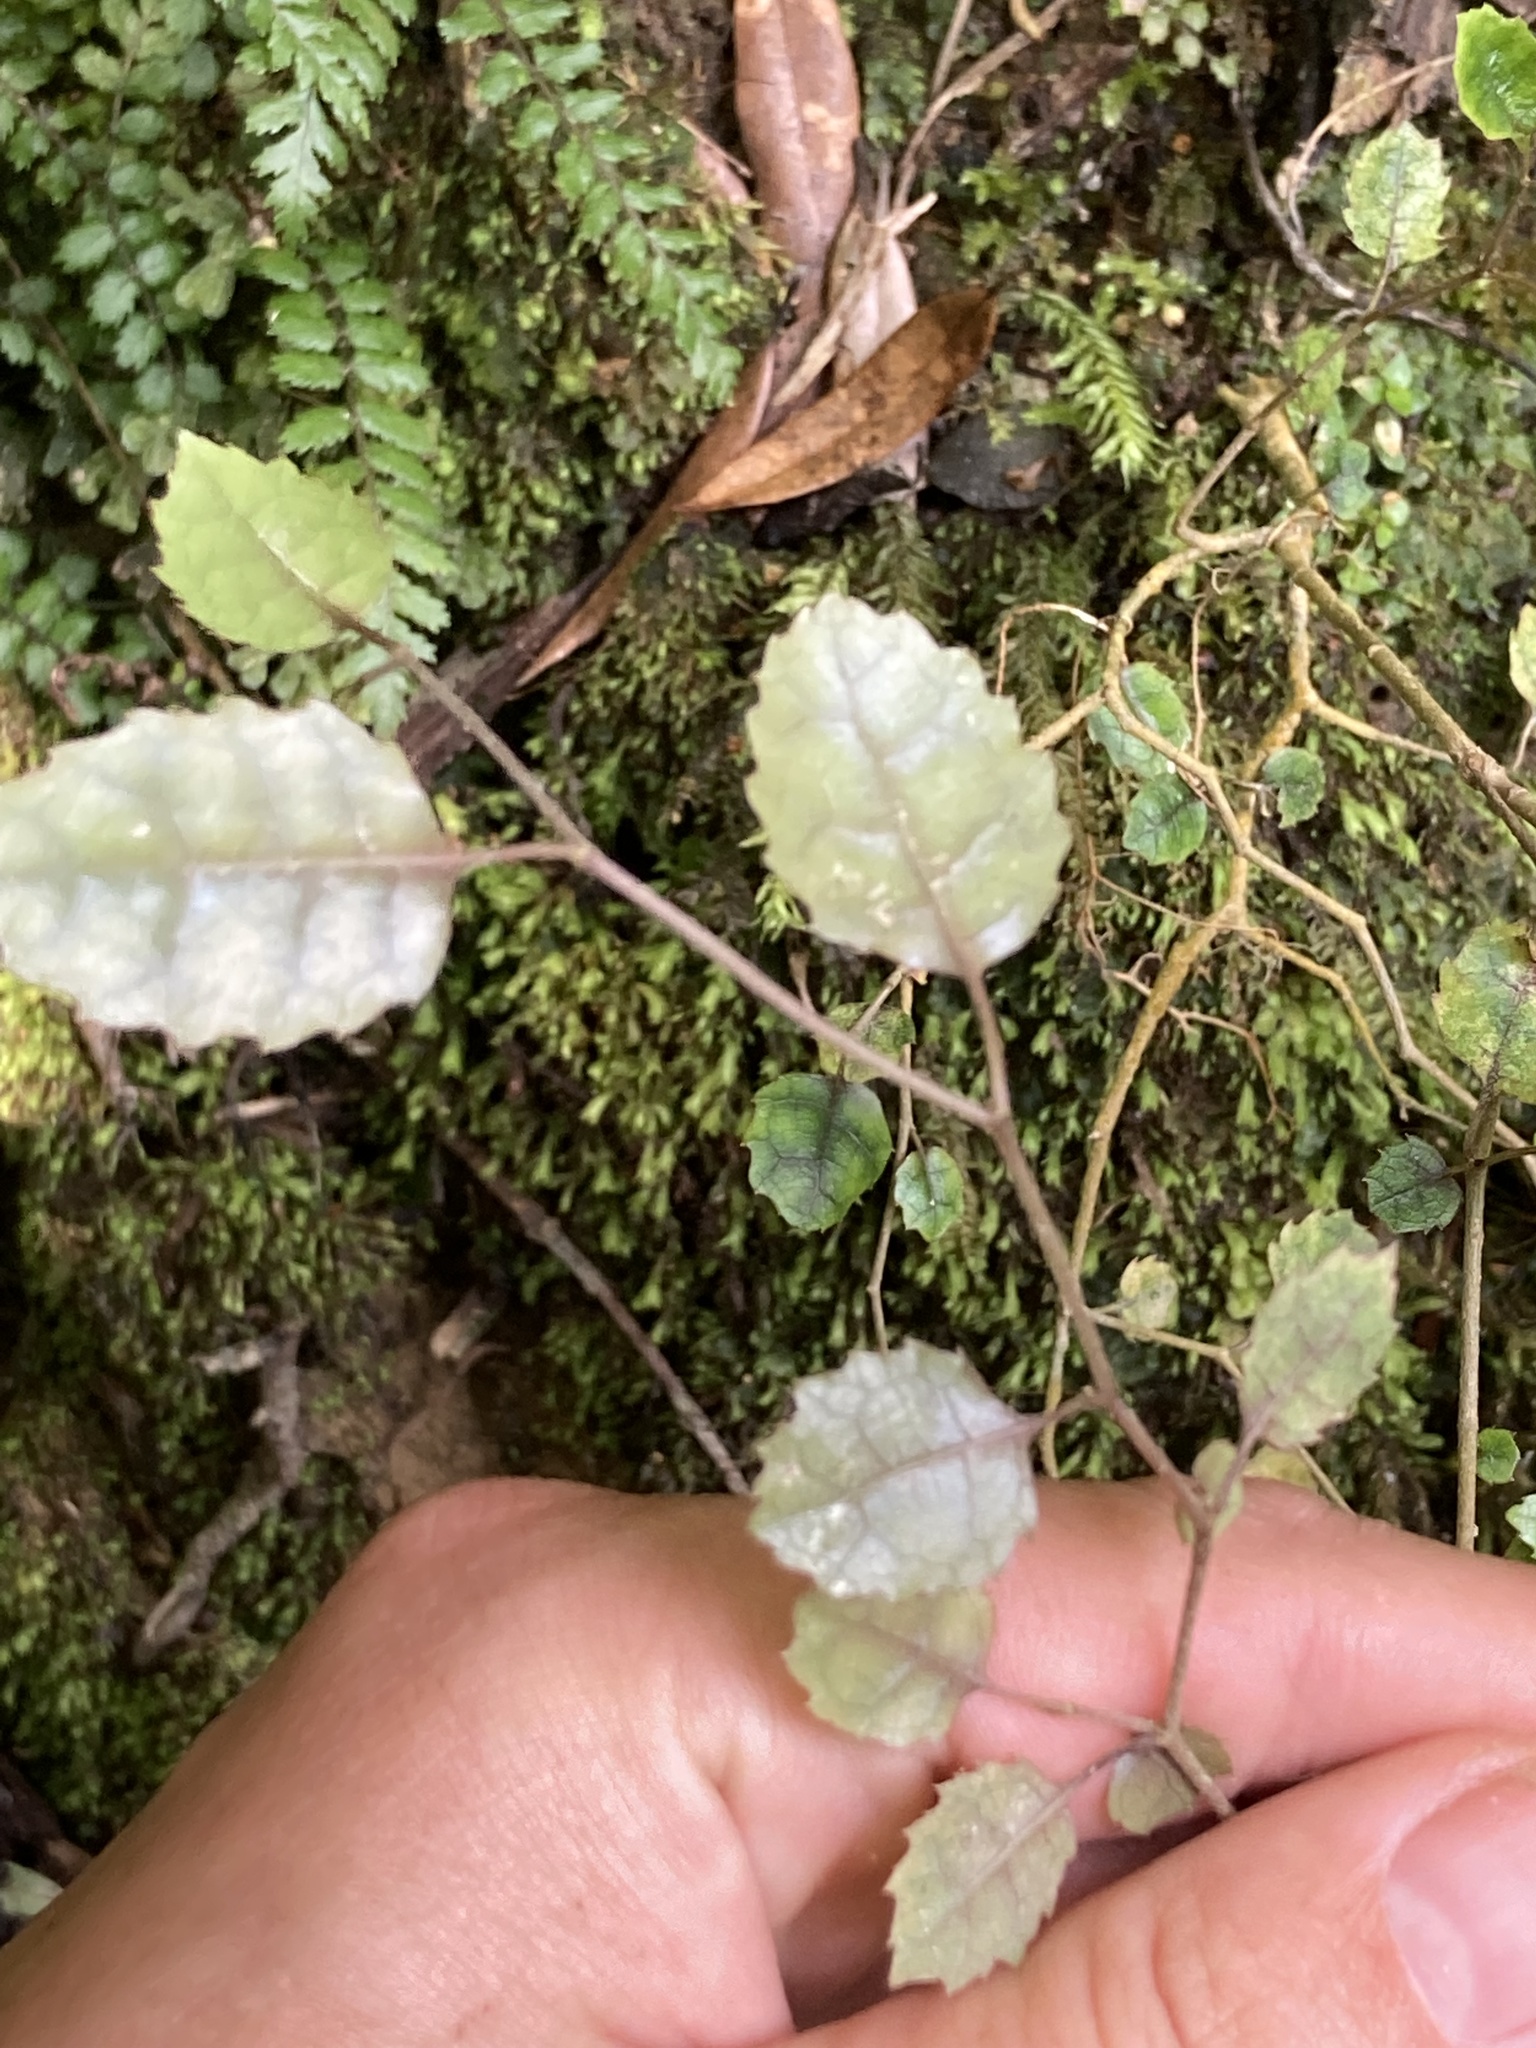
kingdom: Plantae
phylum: Tracheophyta
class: Magnoliopsida
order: Asterales
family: Rousseaceae
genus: Carpodetus
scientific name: Carpodetus serratus
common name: White mapau
